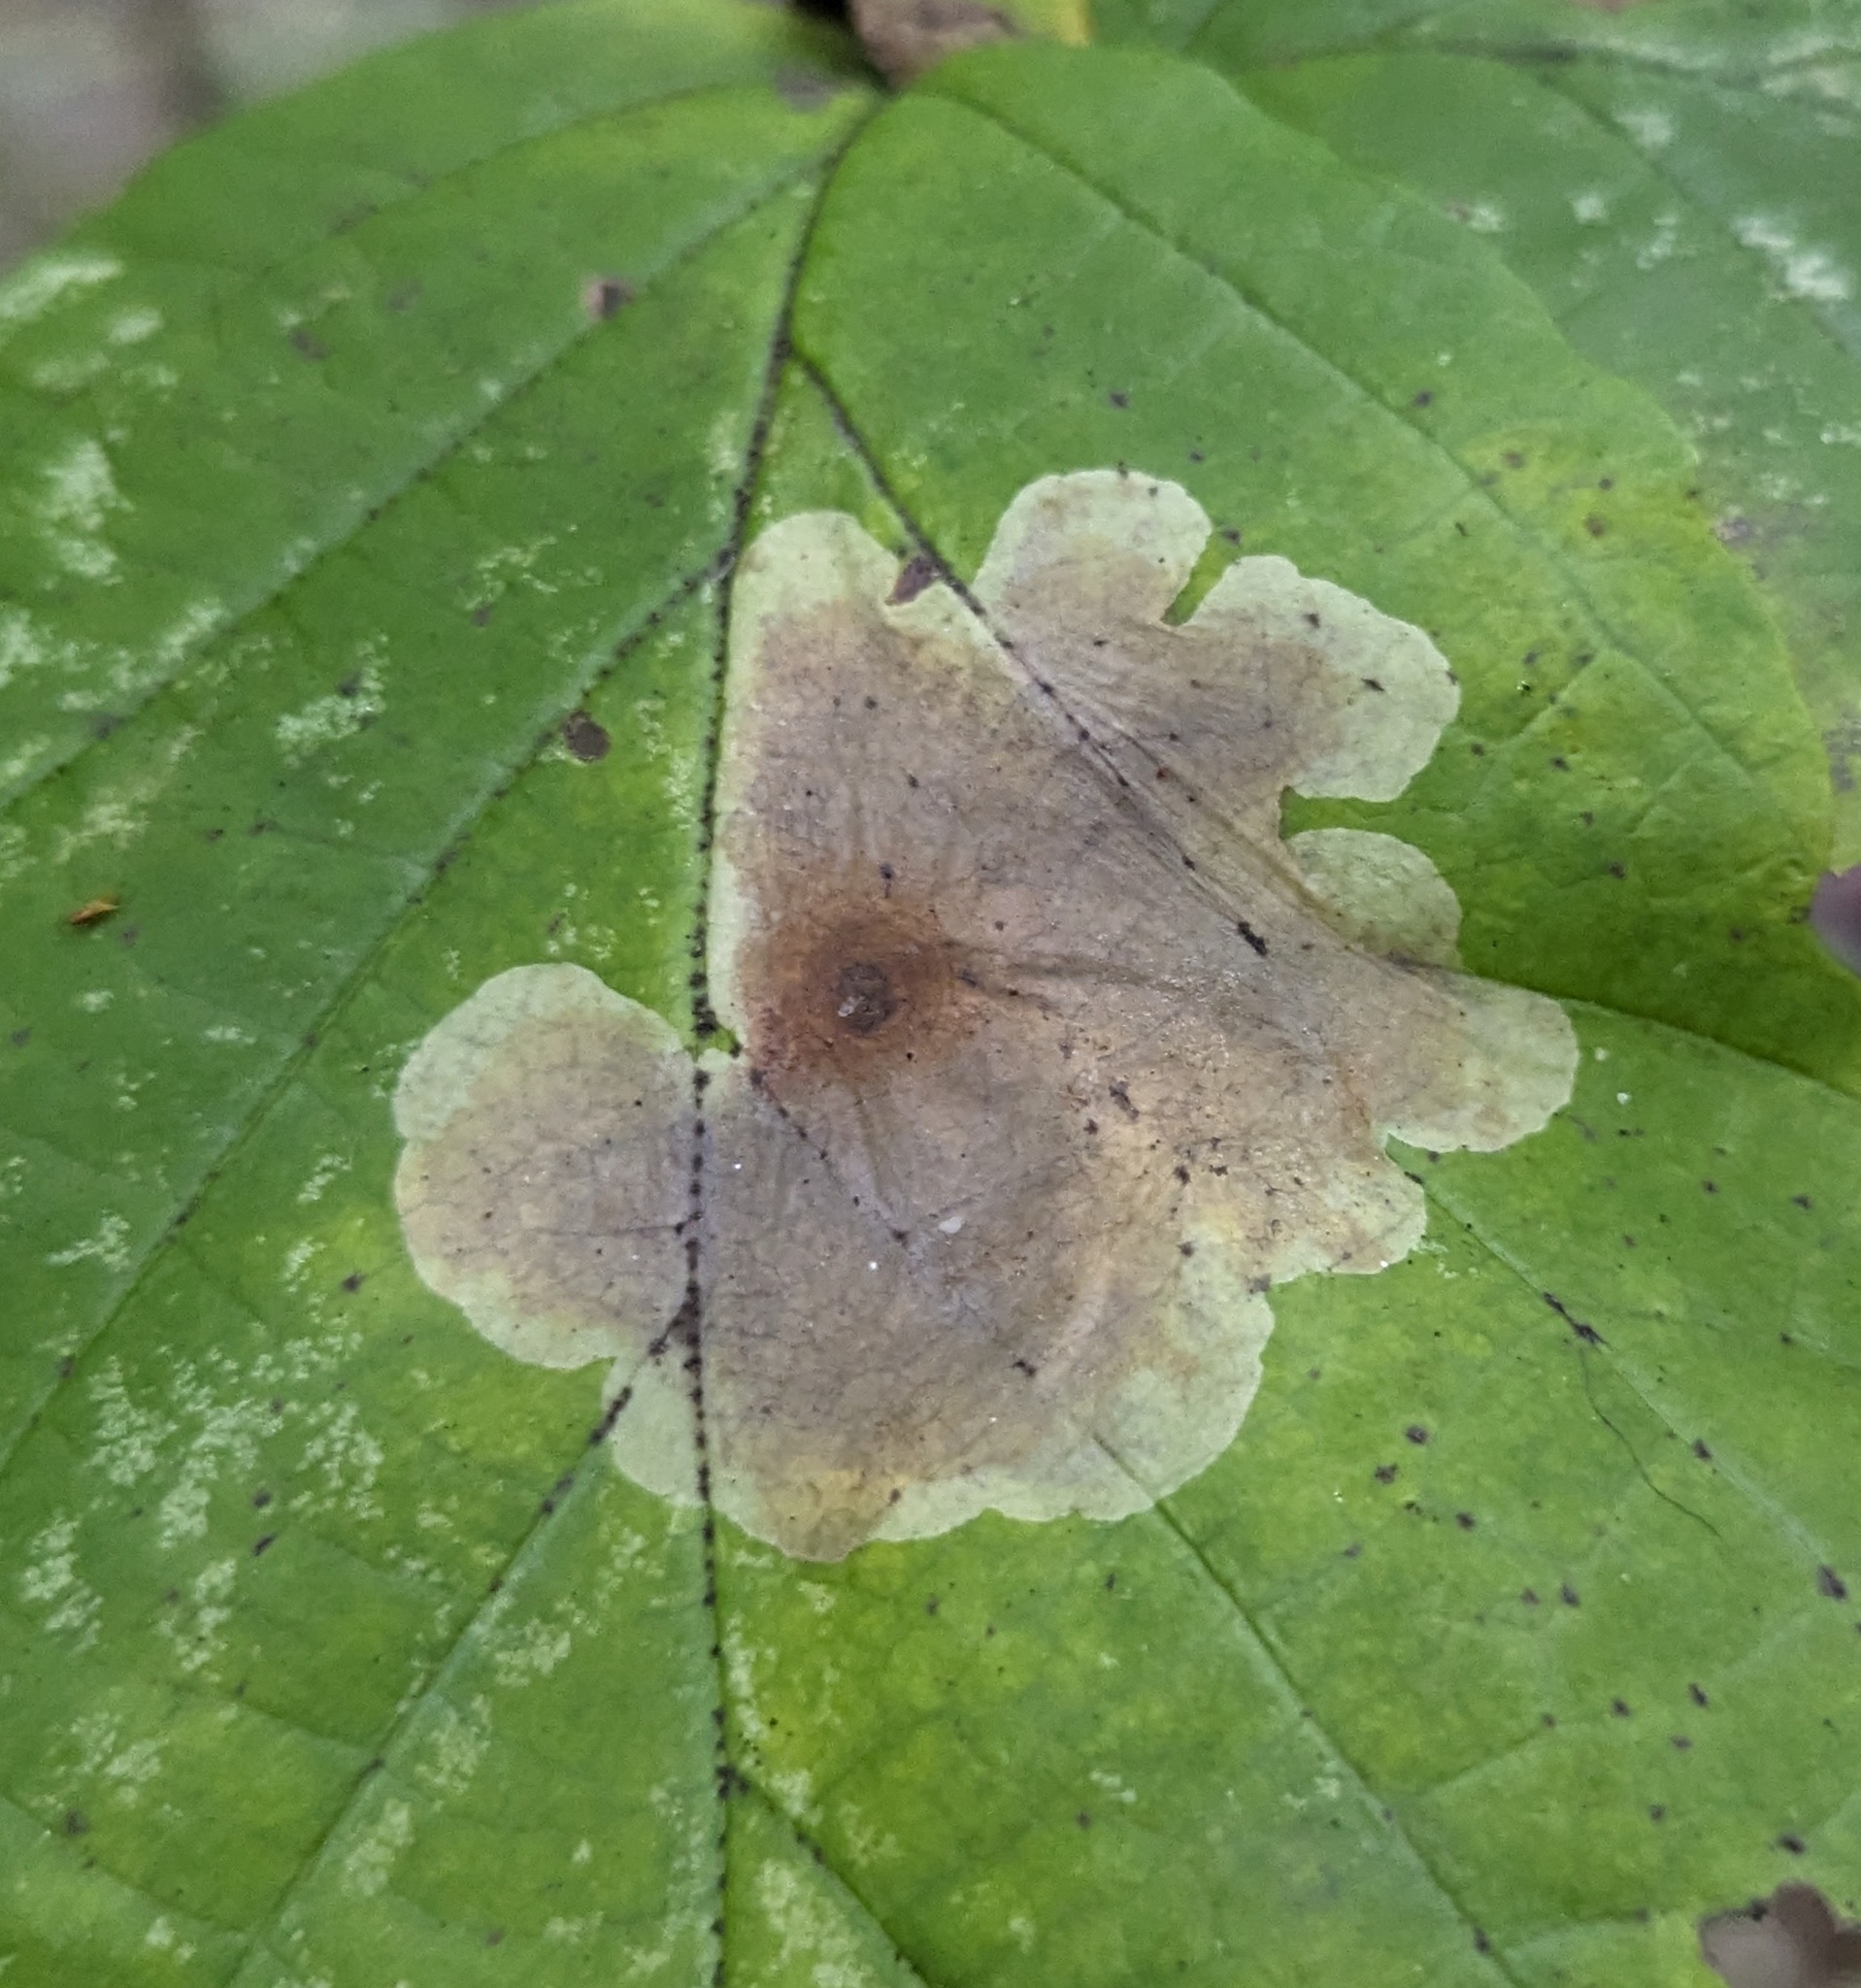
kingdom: Animalia
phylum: Arthropoda
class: Insecta
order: Lepidoptera
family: Gracillariidae
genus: Cameraria
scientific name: Cameraria hamameliella
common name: Witchhazel leafminer
